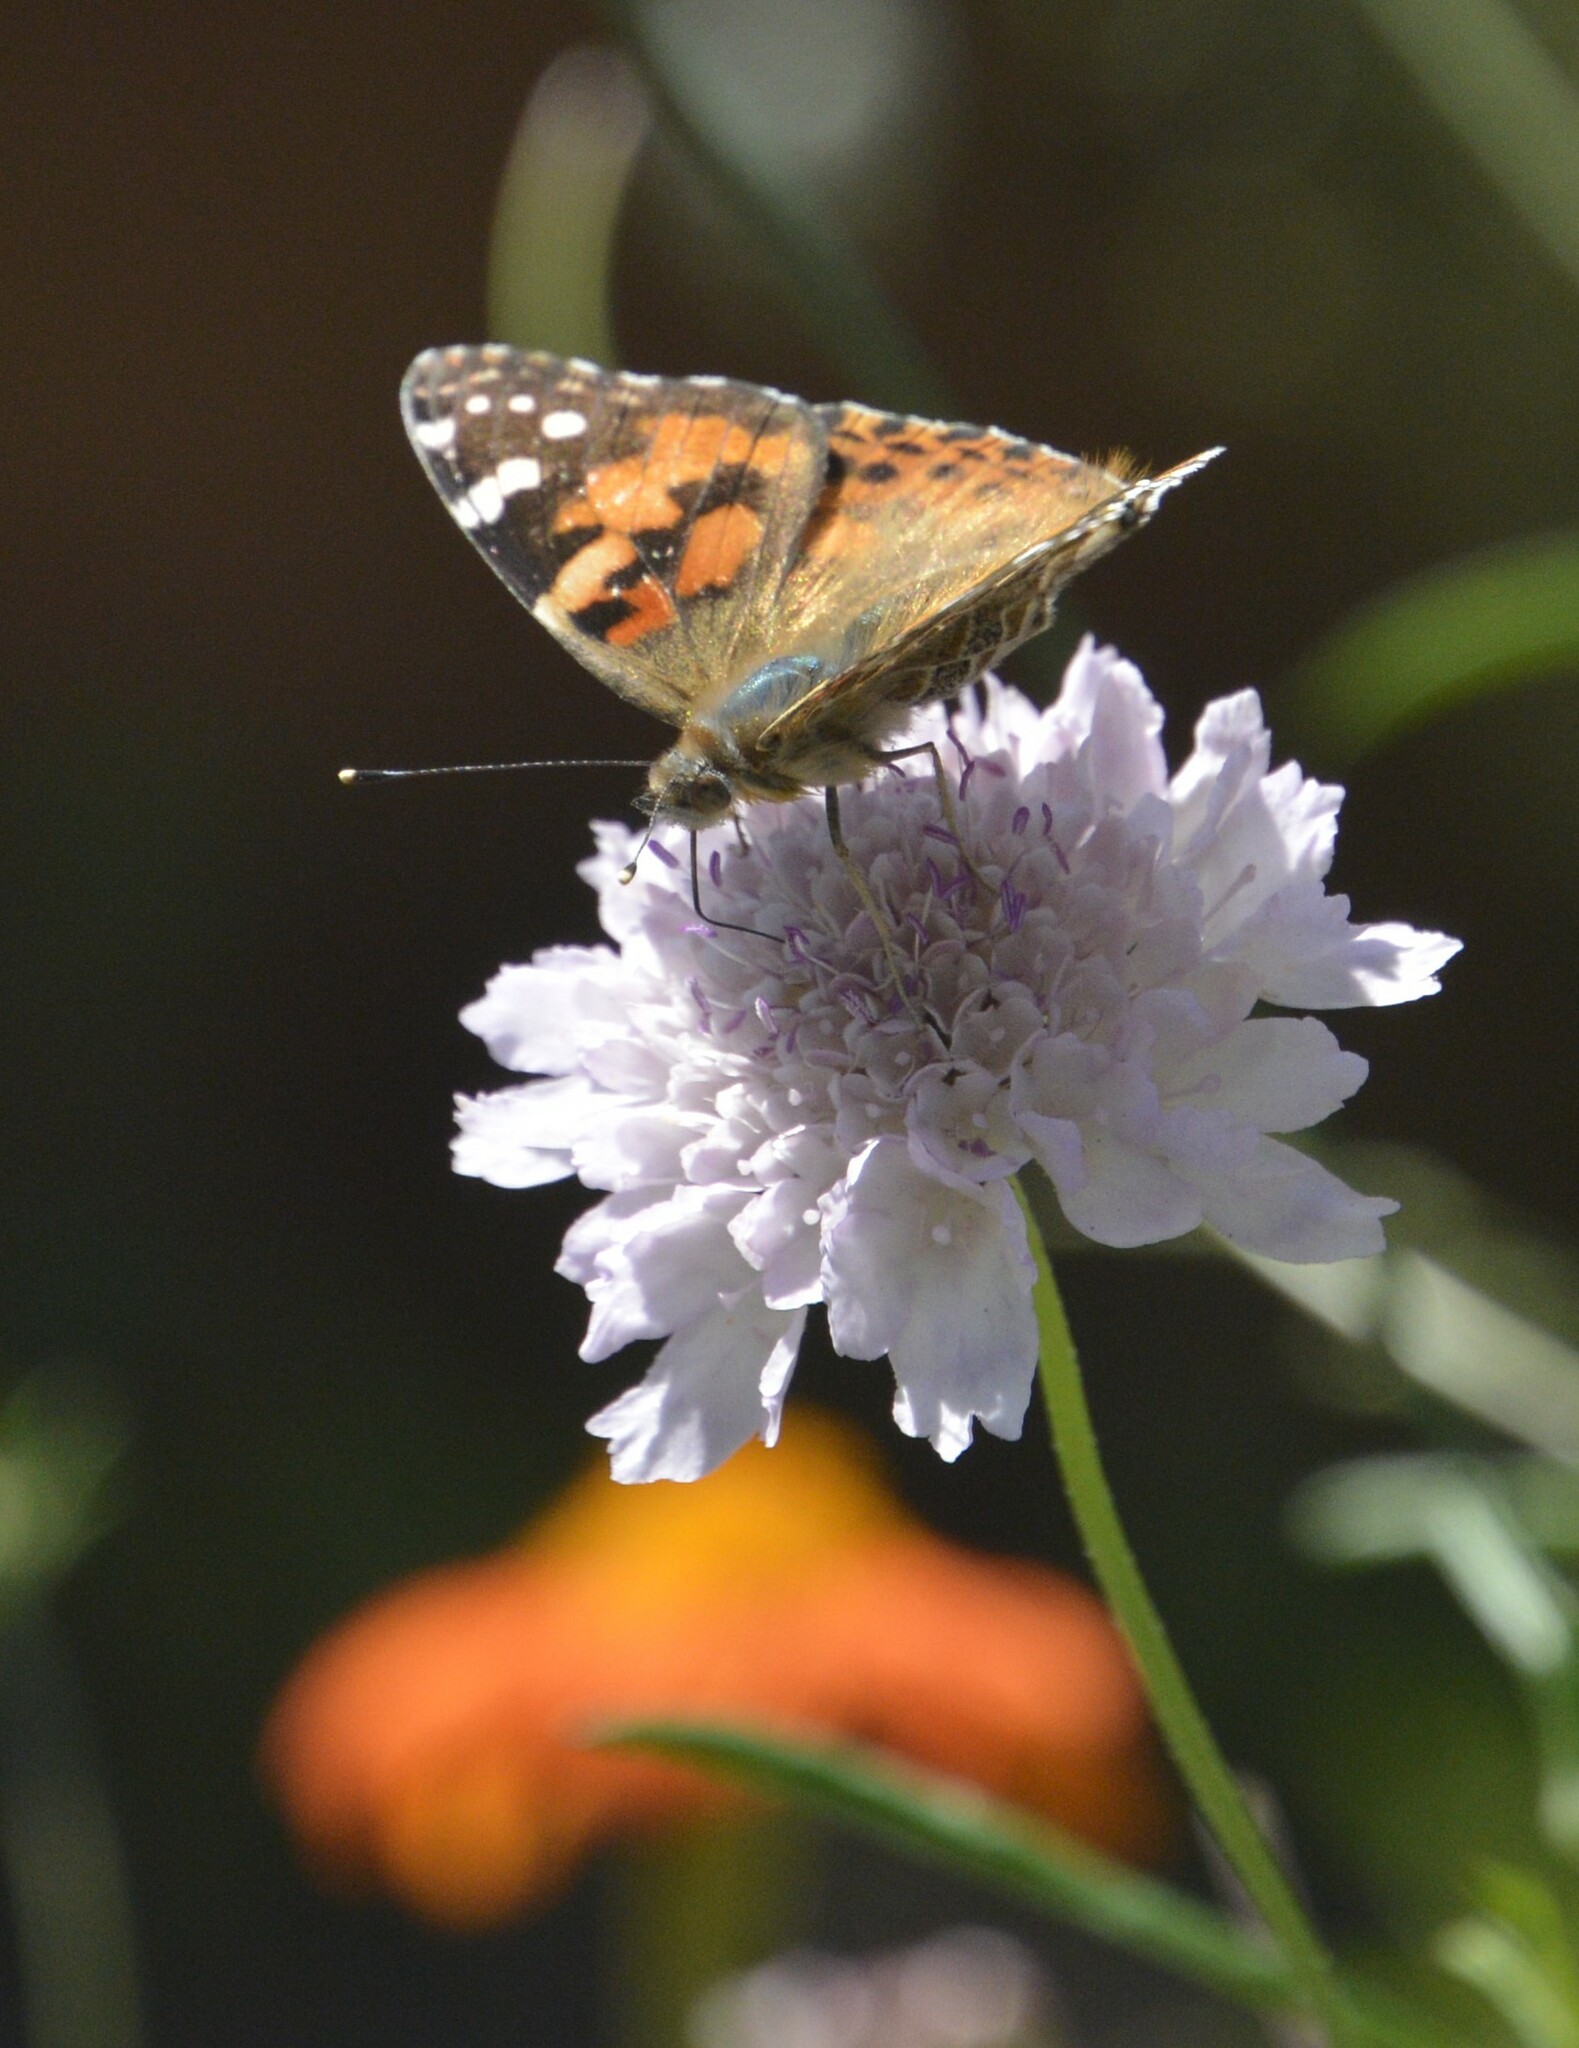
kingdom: Animalia
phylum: Arthropoda
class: Insecta
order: Lepidoptera
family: Nymphalidae
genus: Vanessa
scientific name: Vanessa virginiensis
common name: American lady
